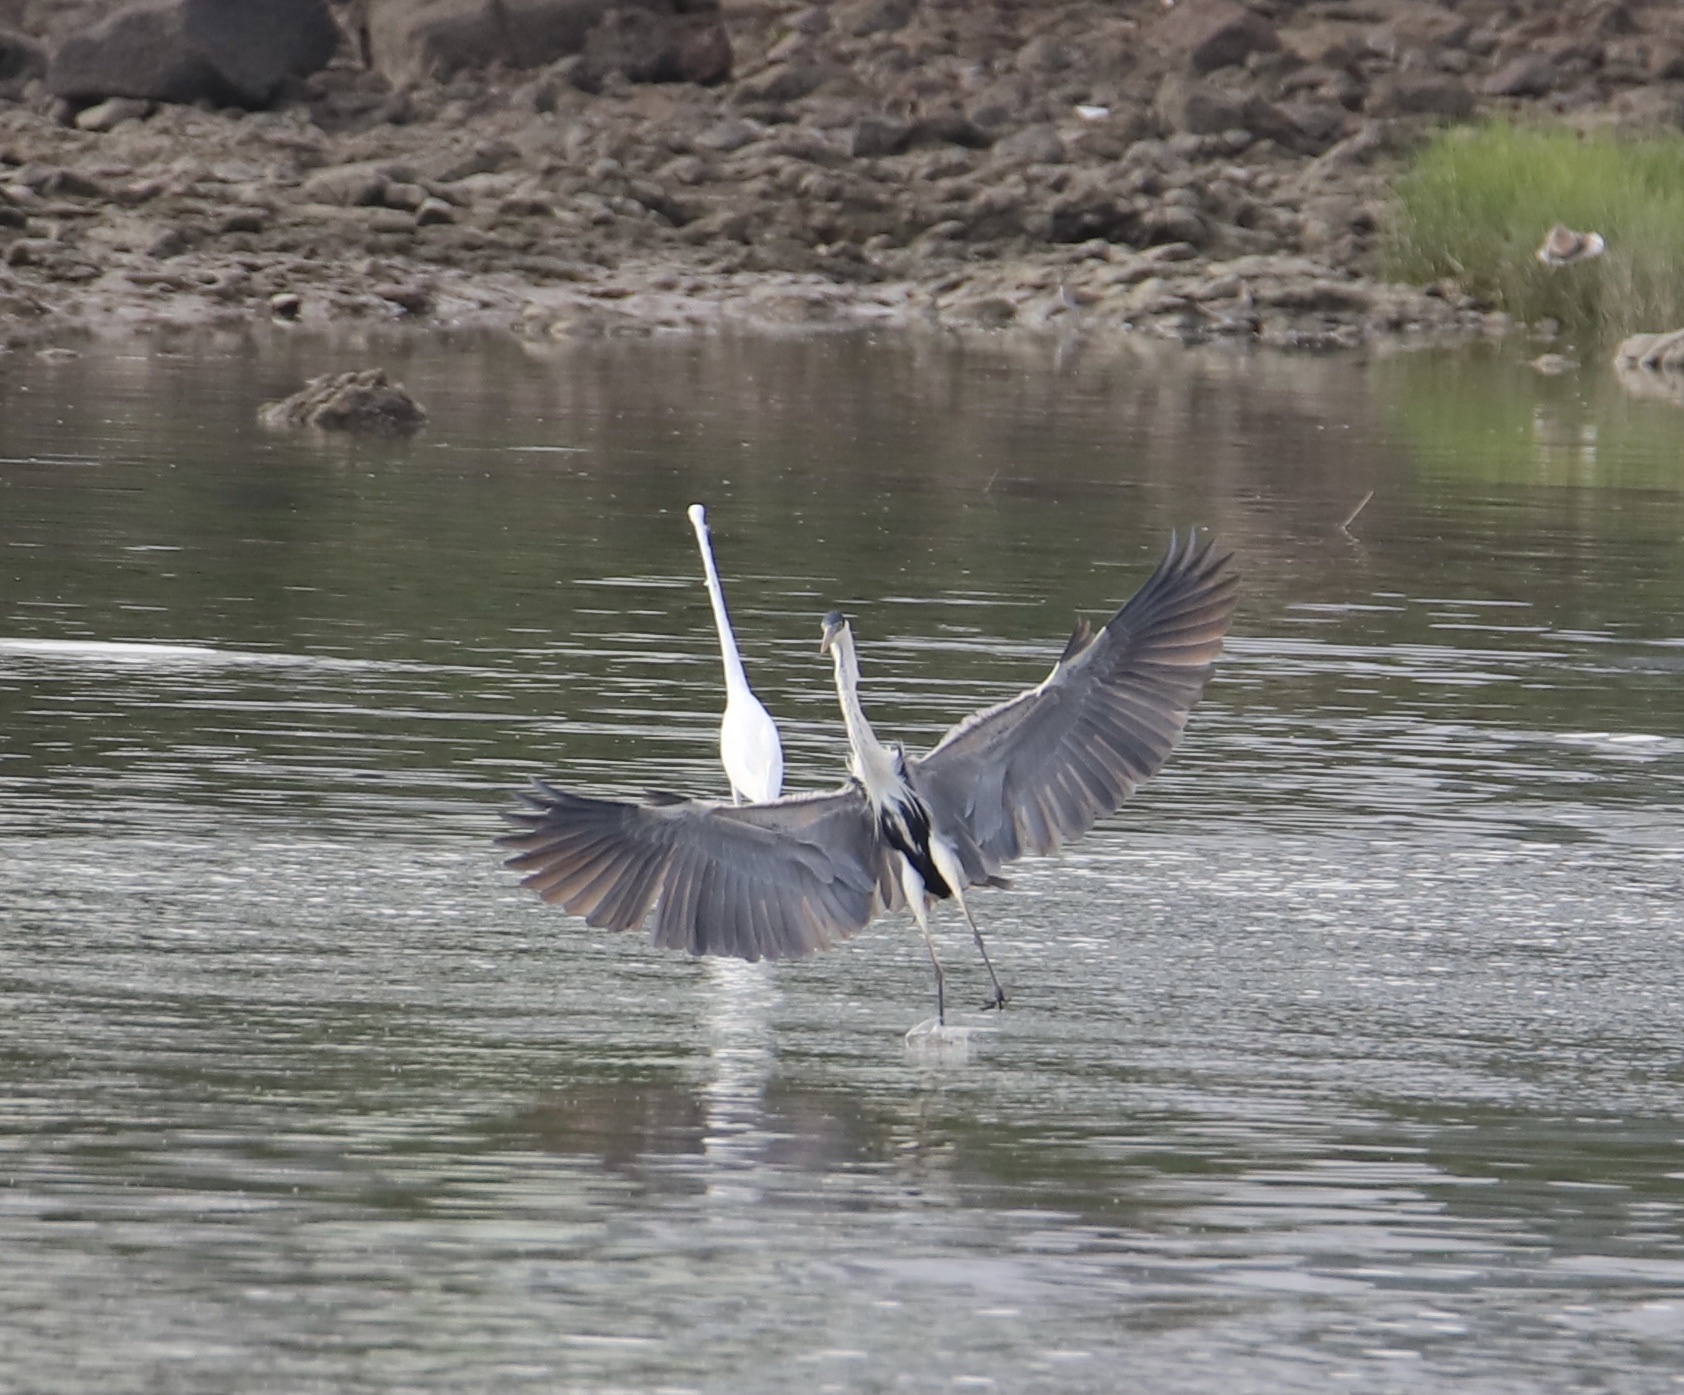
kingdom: Animalia
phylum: Chordata
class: Aves
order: Pelecaniformes
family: Ardeidae
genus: Ardea
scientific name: Ardea cocoi
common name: Cocoi heron
